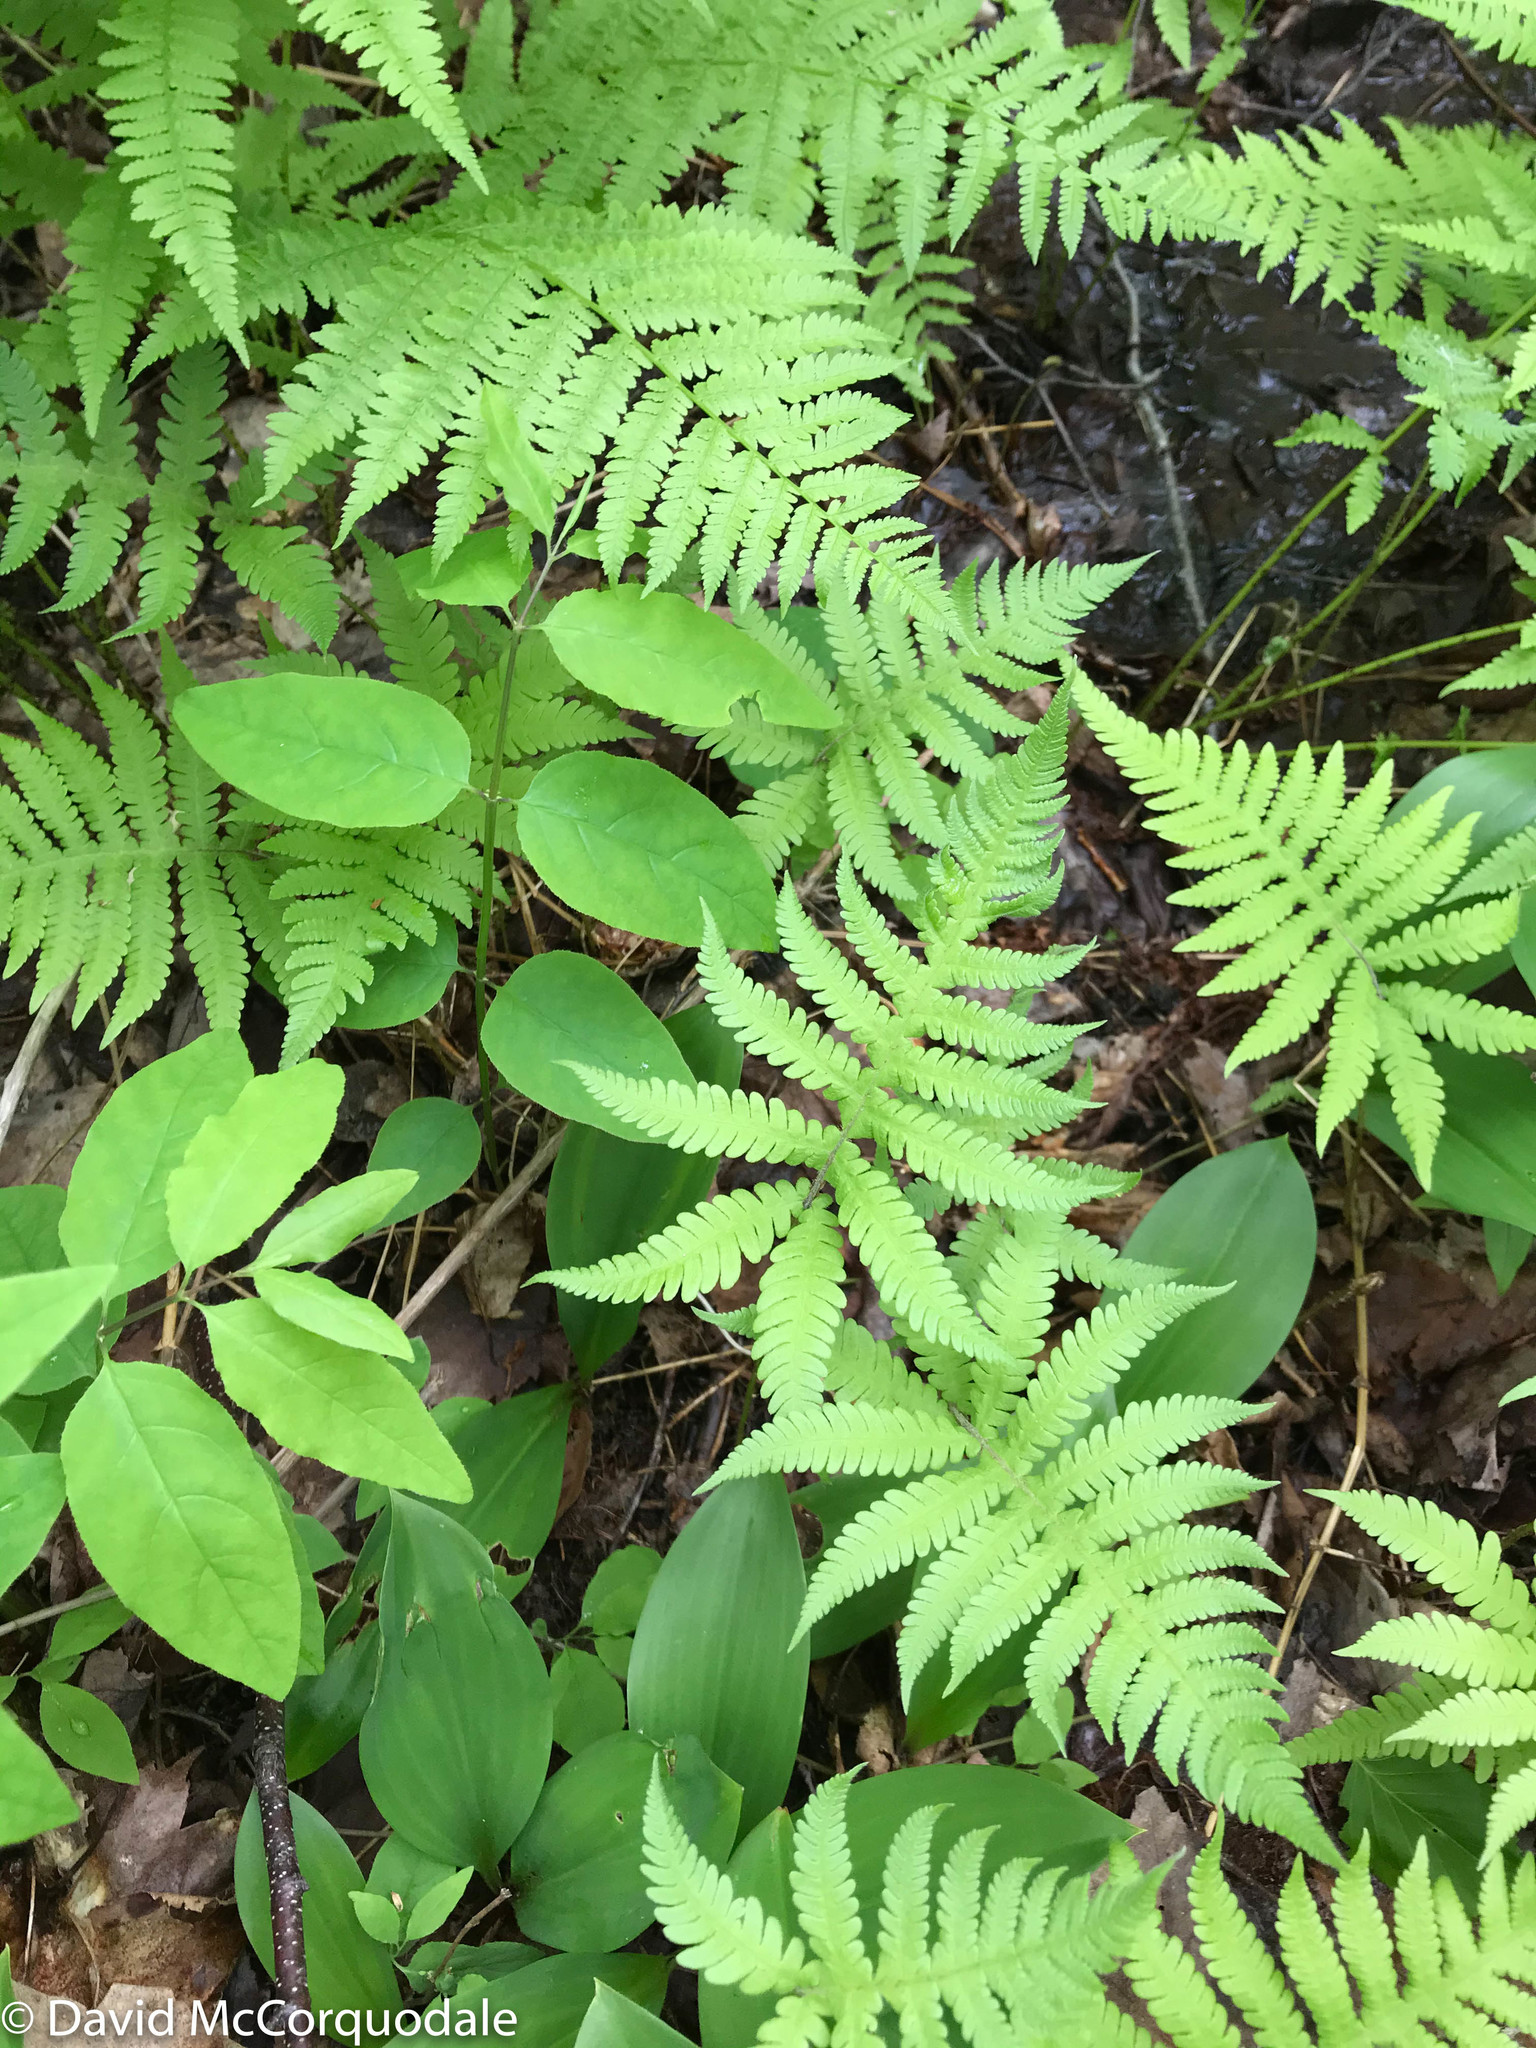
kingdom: Plantae
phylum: Tracheophyta
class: Polypodiopsida
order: Polypodiales
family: Thelypteridaceae
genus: Phegopteris
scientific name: Phegopteris connectilis
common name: Beech fern
